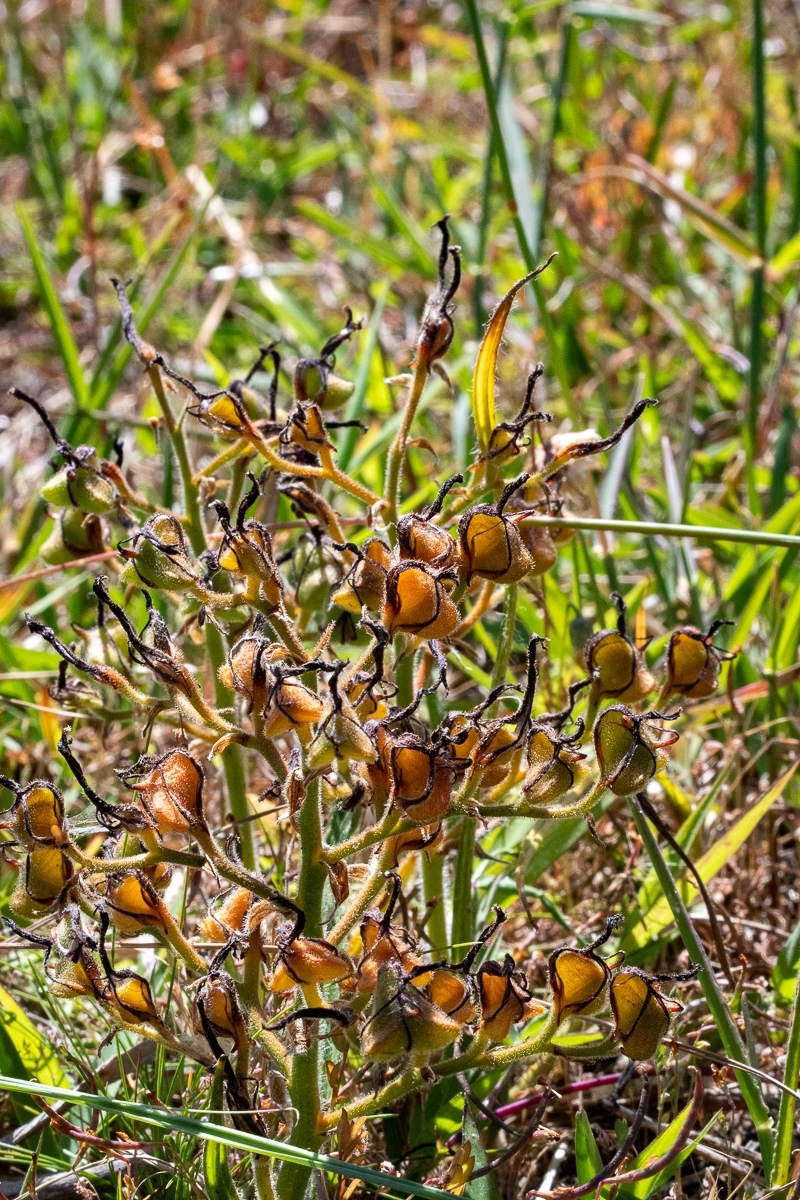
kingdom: Plantae
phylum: Tracheophyta
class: Liliopsida
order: Commelinales
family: Haemodoraceae
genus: Wachendorfia
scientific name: Wachendorfia paniculata
